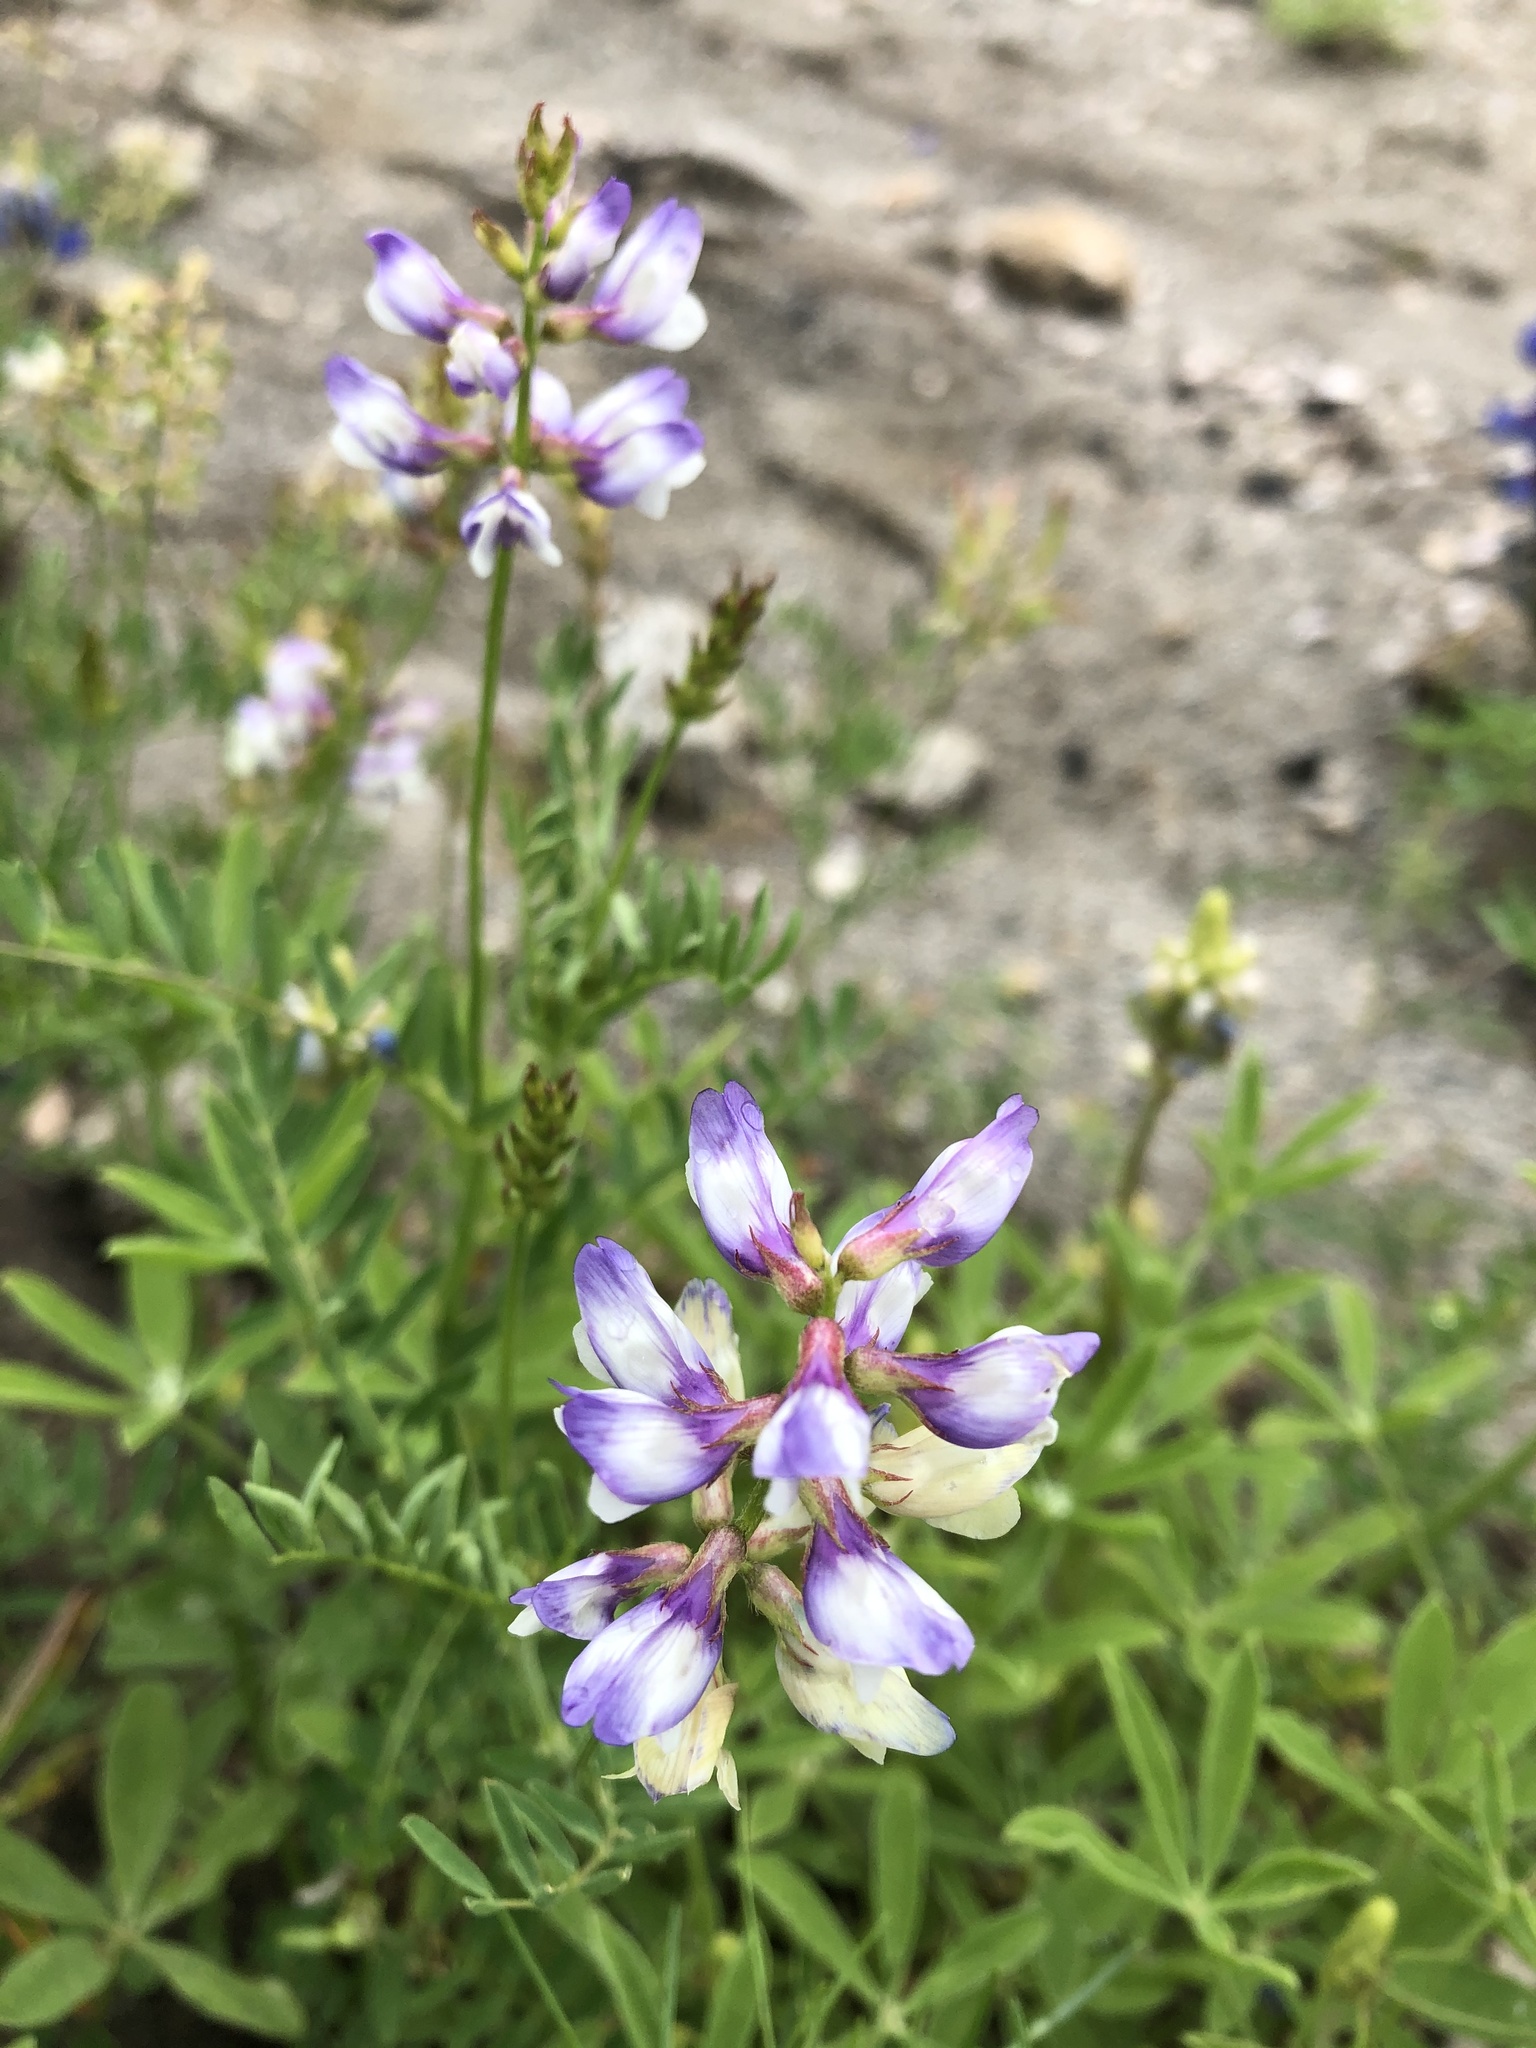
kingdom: Plantae
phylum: Tracheophyta
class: Magnoliopsida
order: Fabales
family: Fabaceae
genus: Astragalus
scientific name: Astragalus nuttallianus
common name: Smallflowered milkvetch
